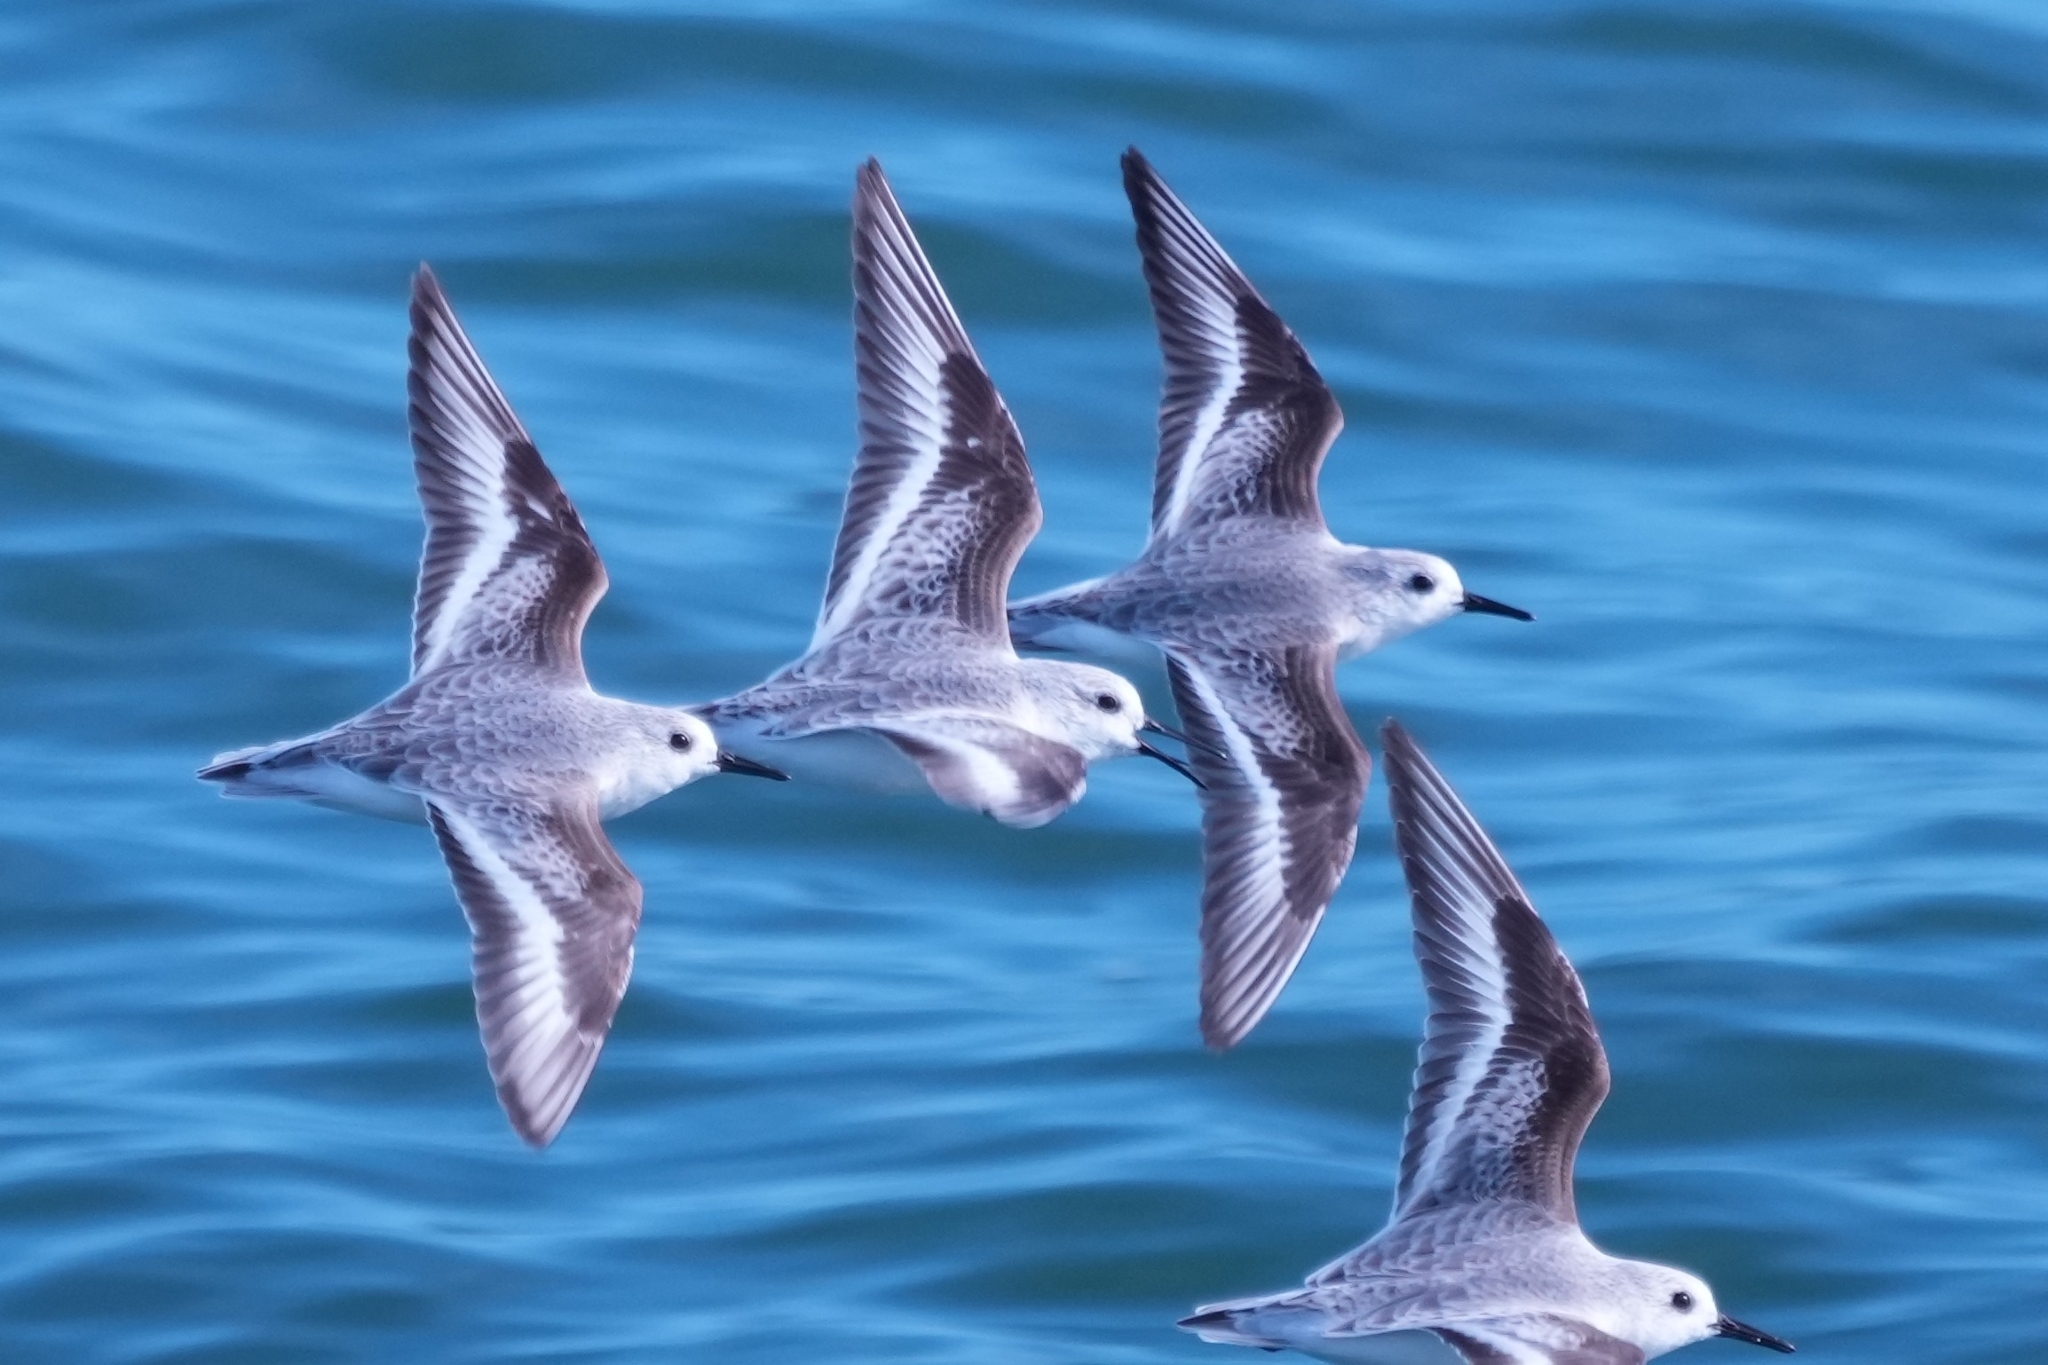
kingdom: Animalia
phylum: Chordata
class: Aves
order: Charadriiformes
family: Scolopacidae
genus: Calidris
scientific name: Calidris alba
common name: Sanderling
